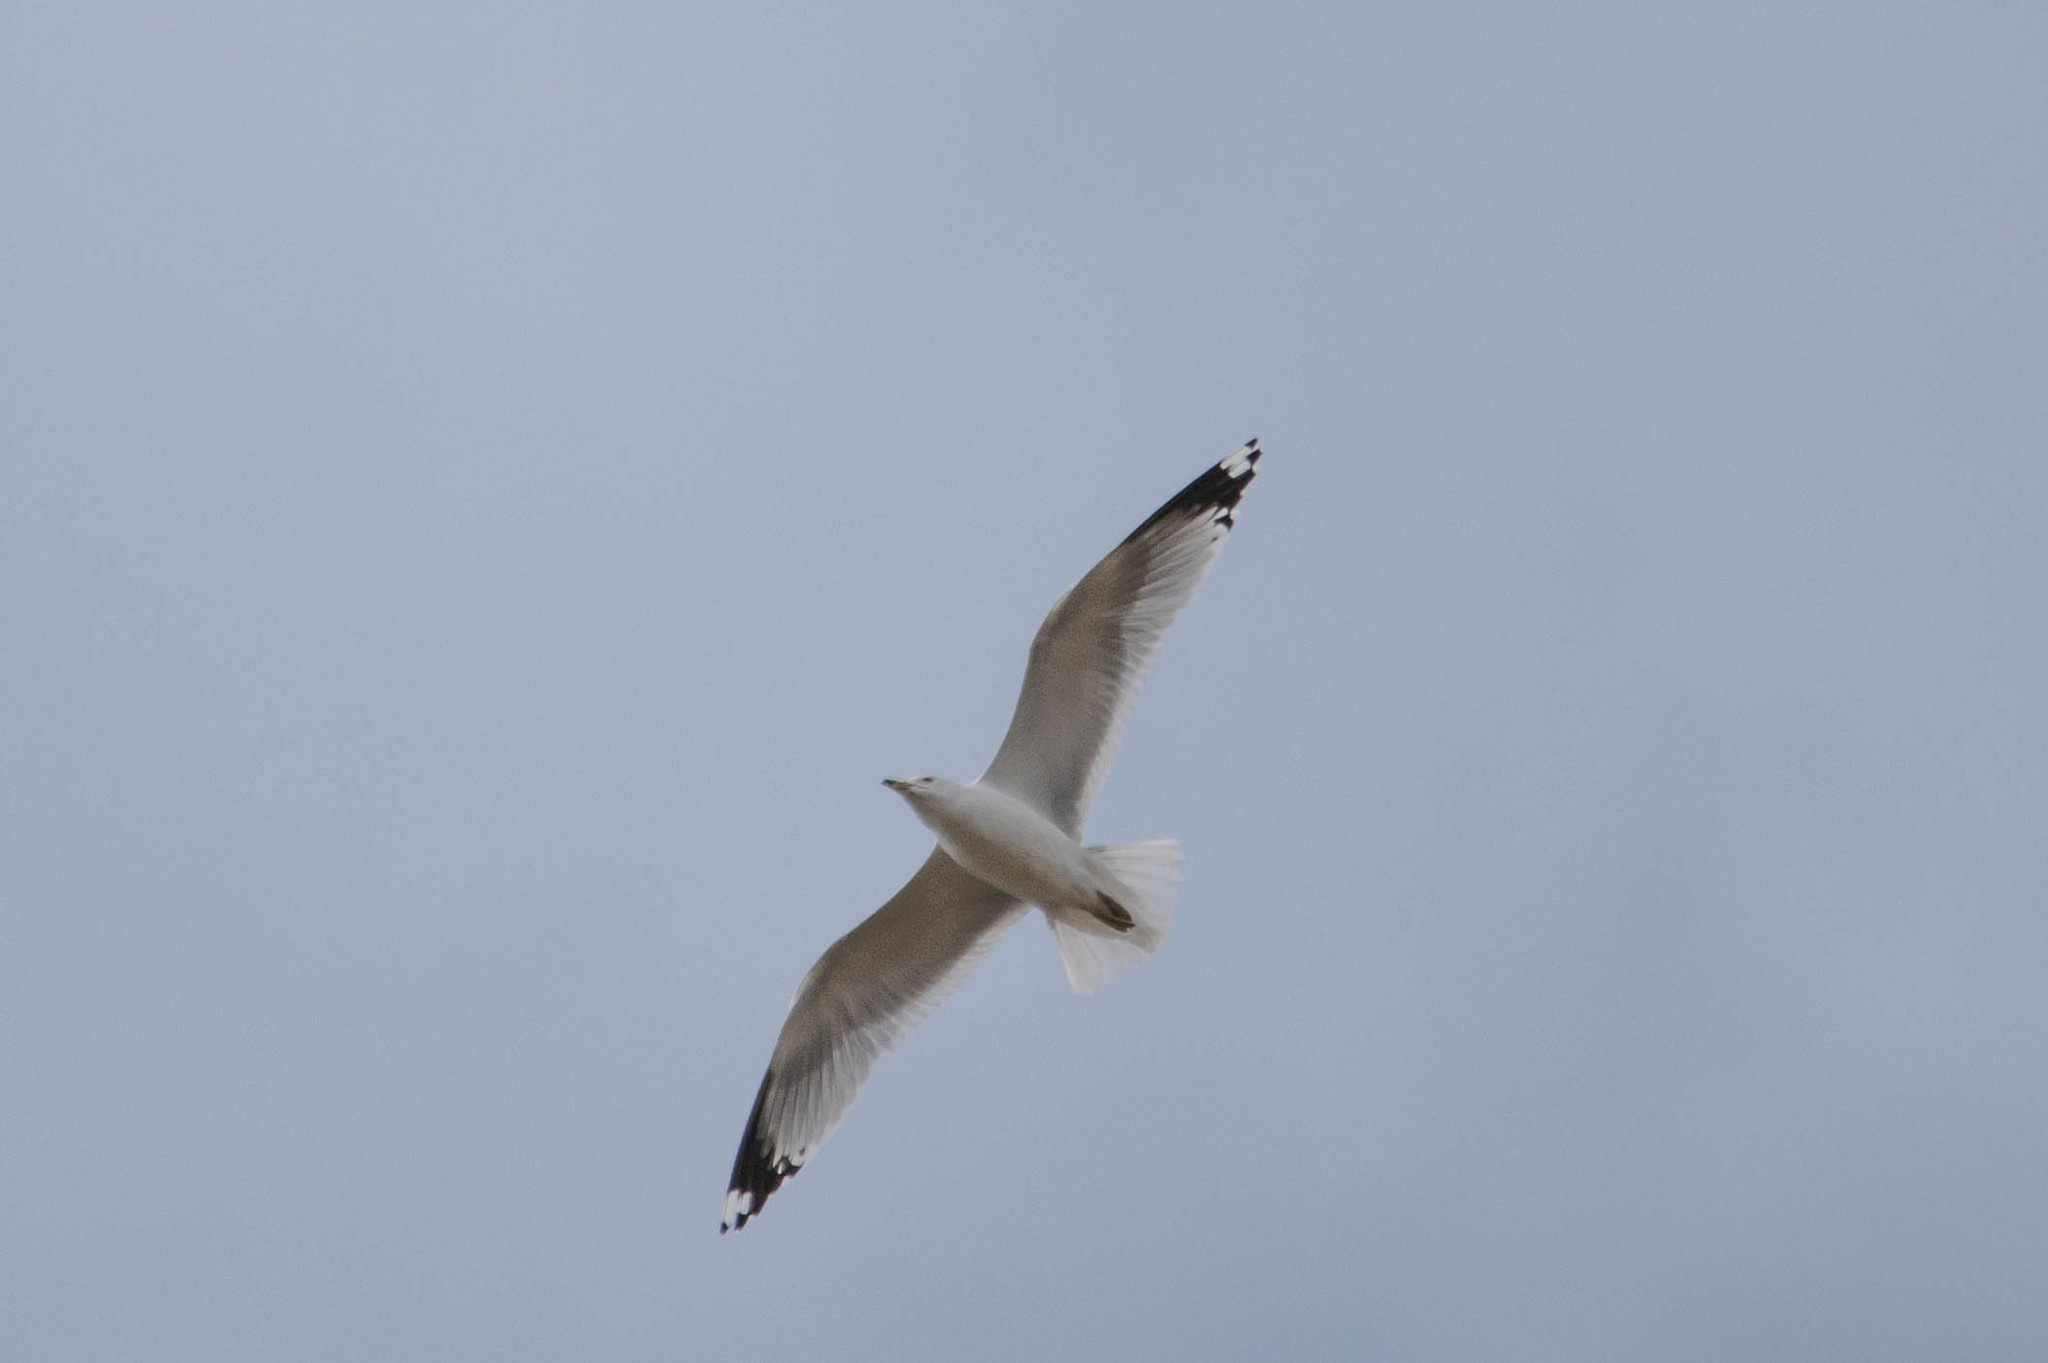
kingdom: Animalia
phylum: Chordata
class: Aves
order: Charadriiformes
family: Laridae
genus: Larus
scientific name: Larus delawarensis
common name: Ring-billed gull
